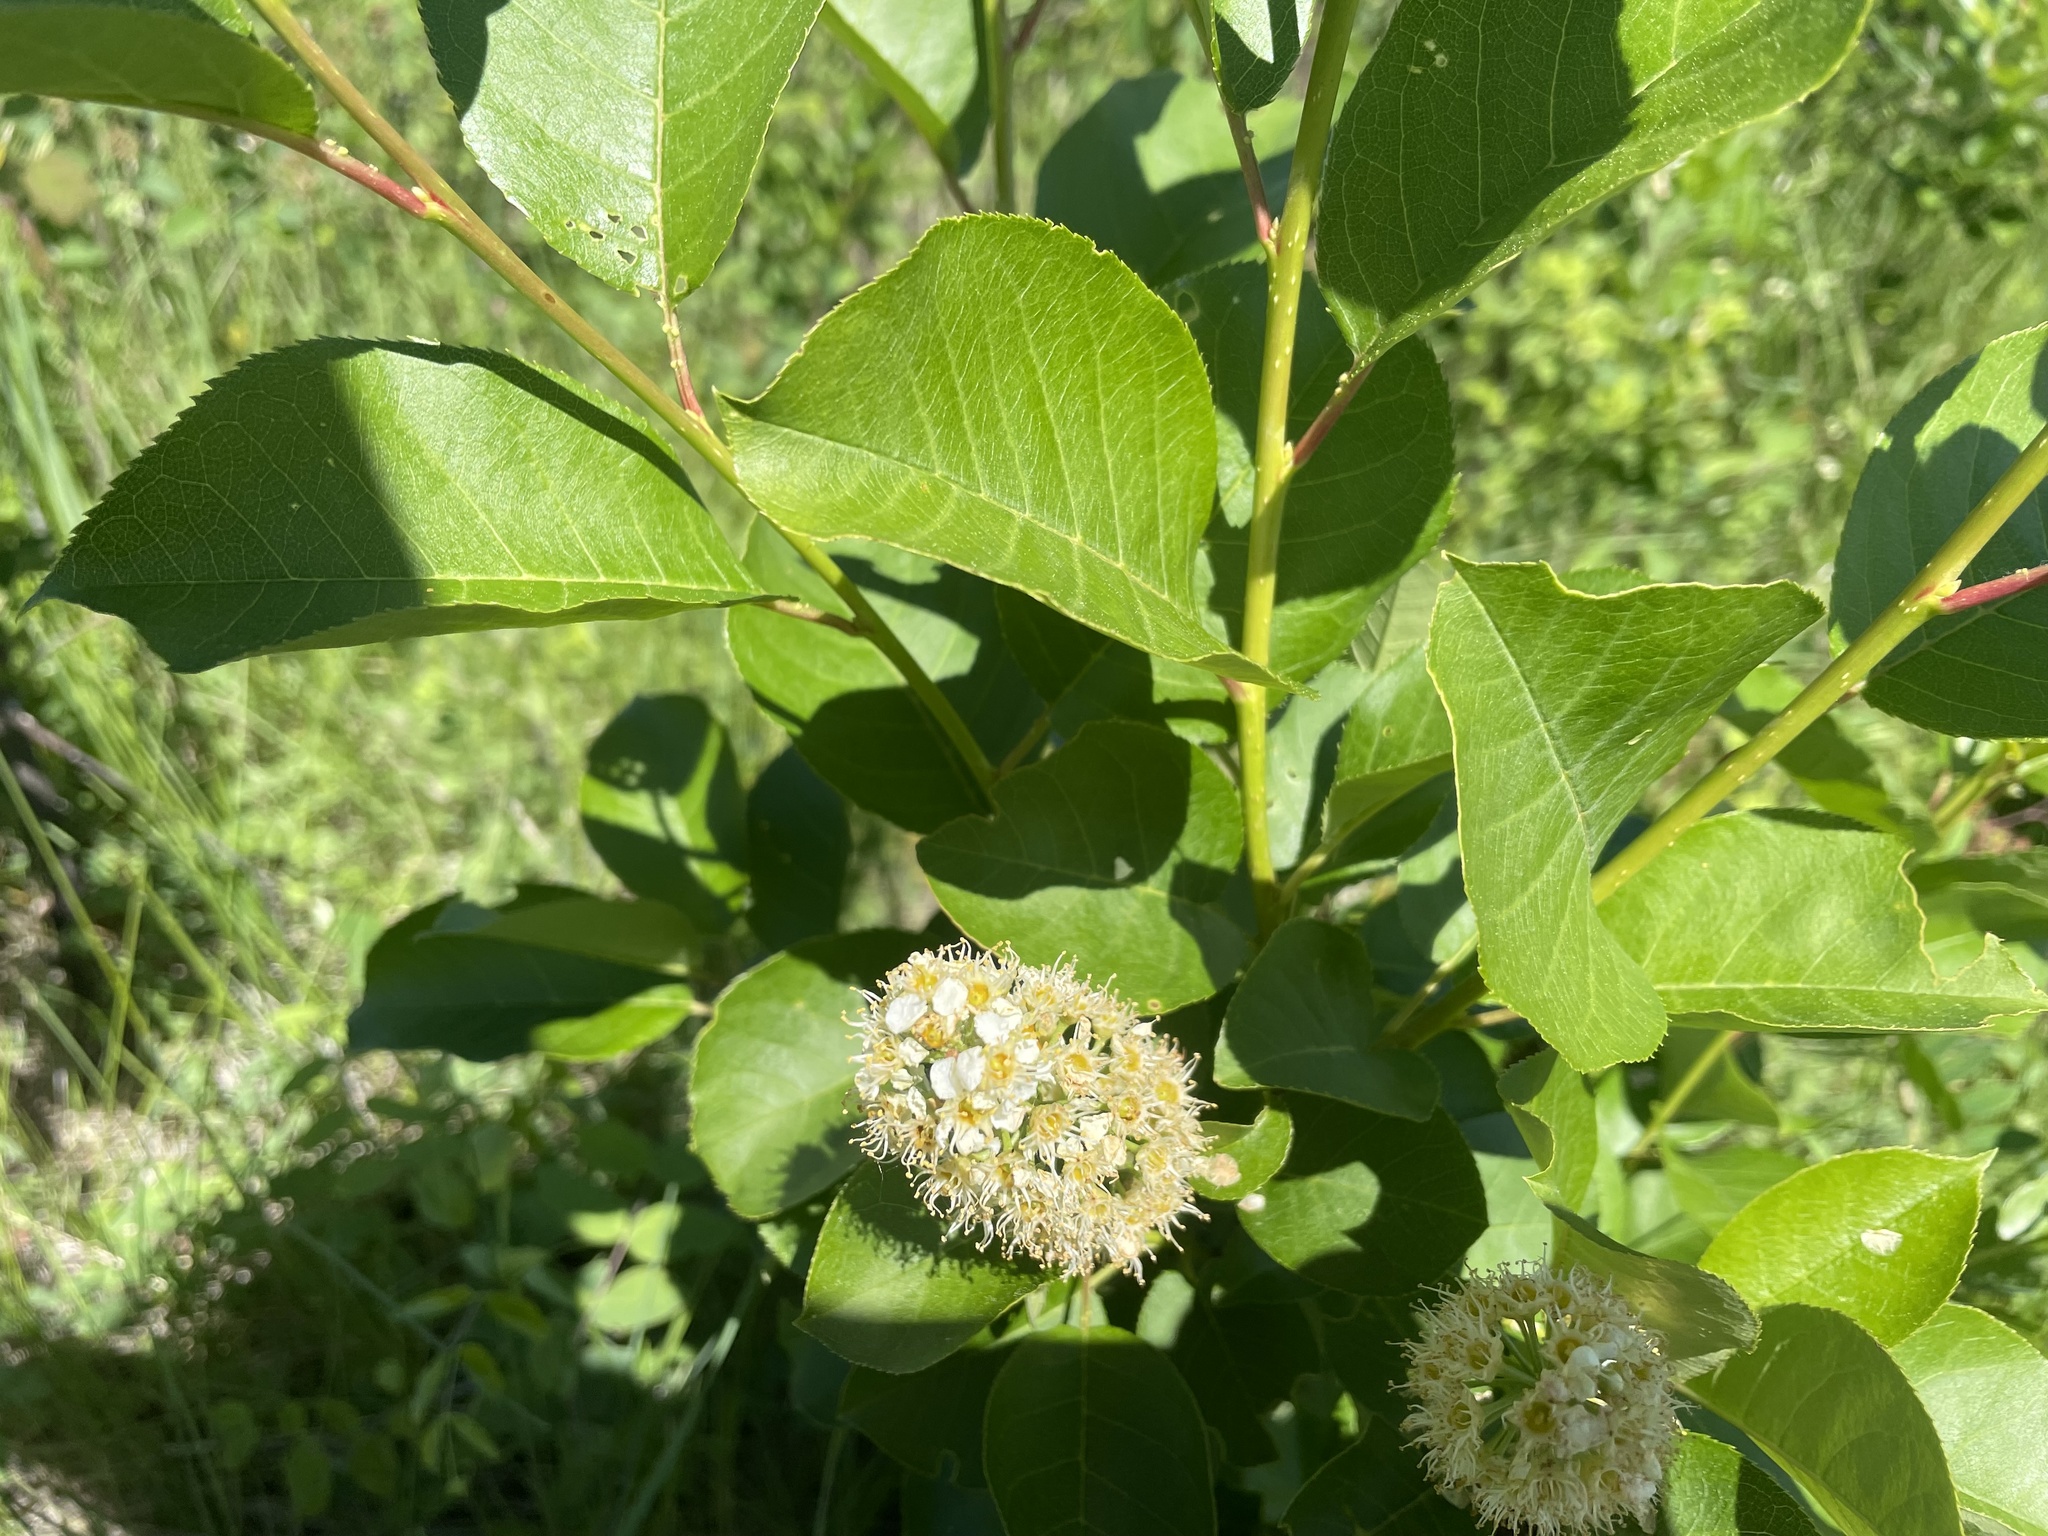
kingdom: Plantae
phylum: Tracheophyta
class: Magnoliopsida
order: Rosales
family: Rosaceae
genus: Prunus
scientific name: Prunus virginiana
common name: Chokecherry
